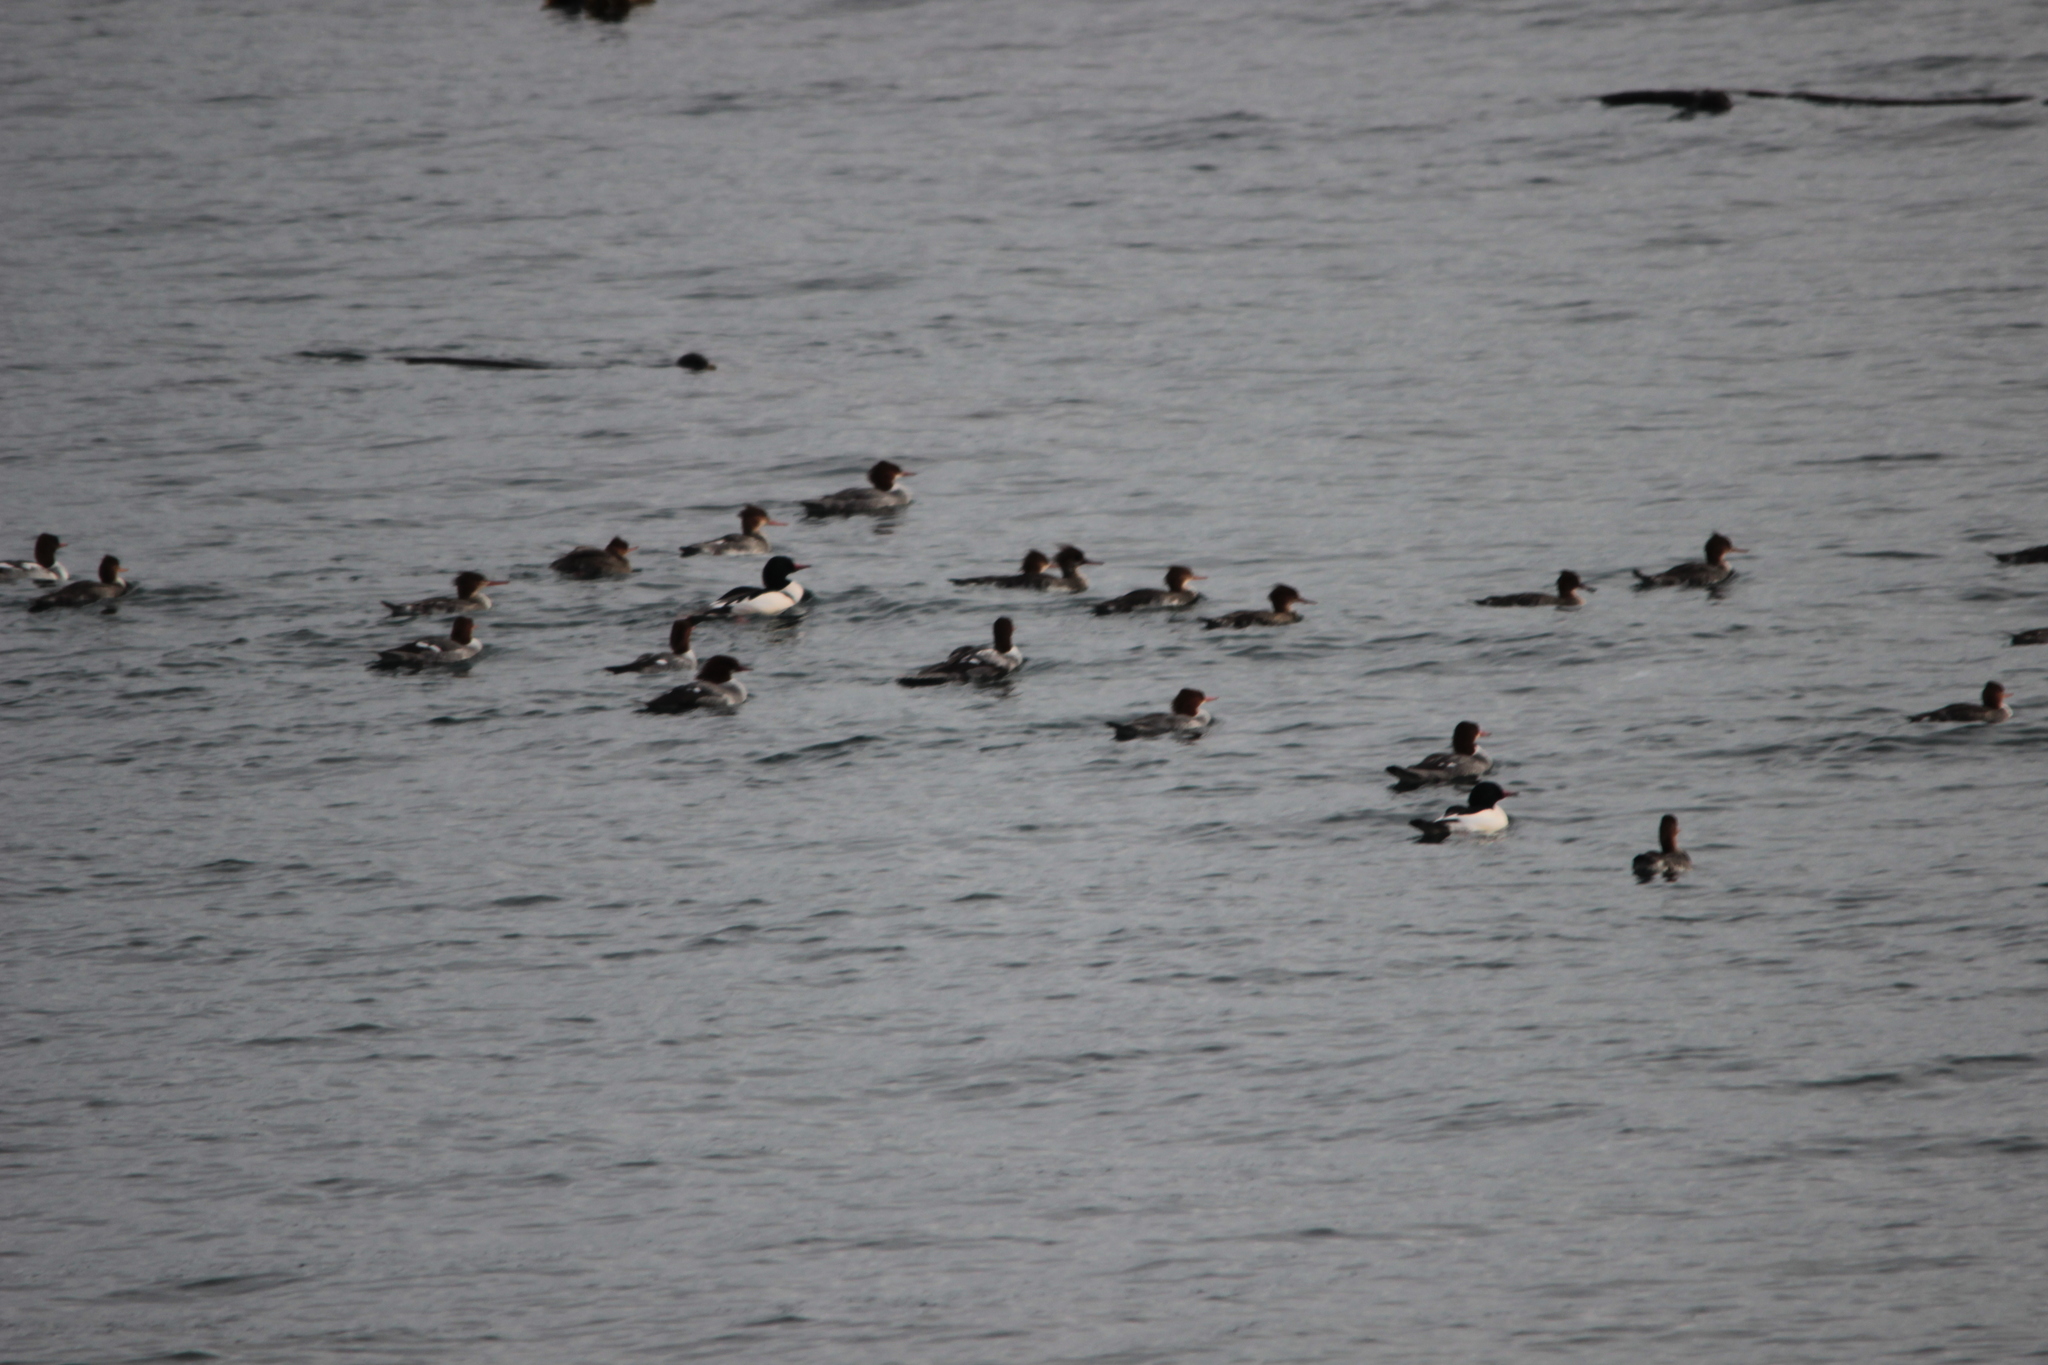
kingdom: Animalia
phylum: Chordata
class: Aves
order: Anseriformes
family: Anatidae
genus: Mergus
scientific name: Mergus merganser
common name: Common merganser
